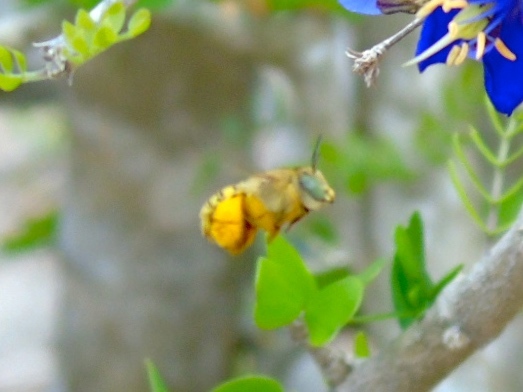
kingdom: Animalia
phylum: Arthropoda
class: Insecta
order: Hymenoptera
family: Apidae
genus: Centris
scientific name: Centris
